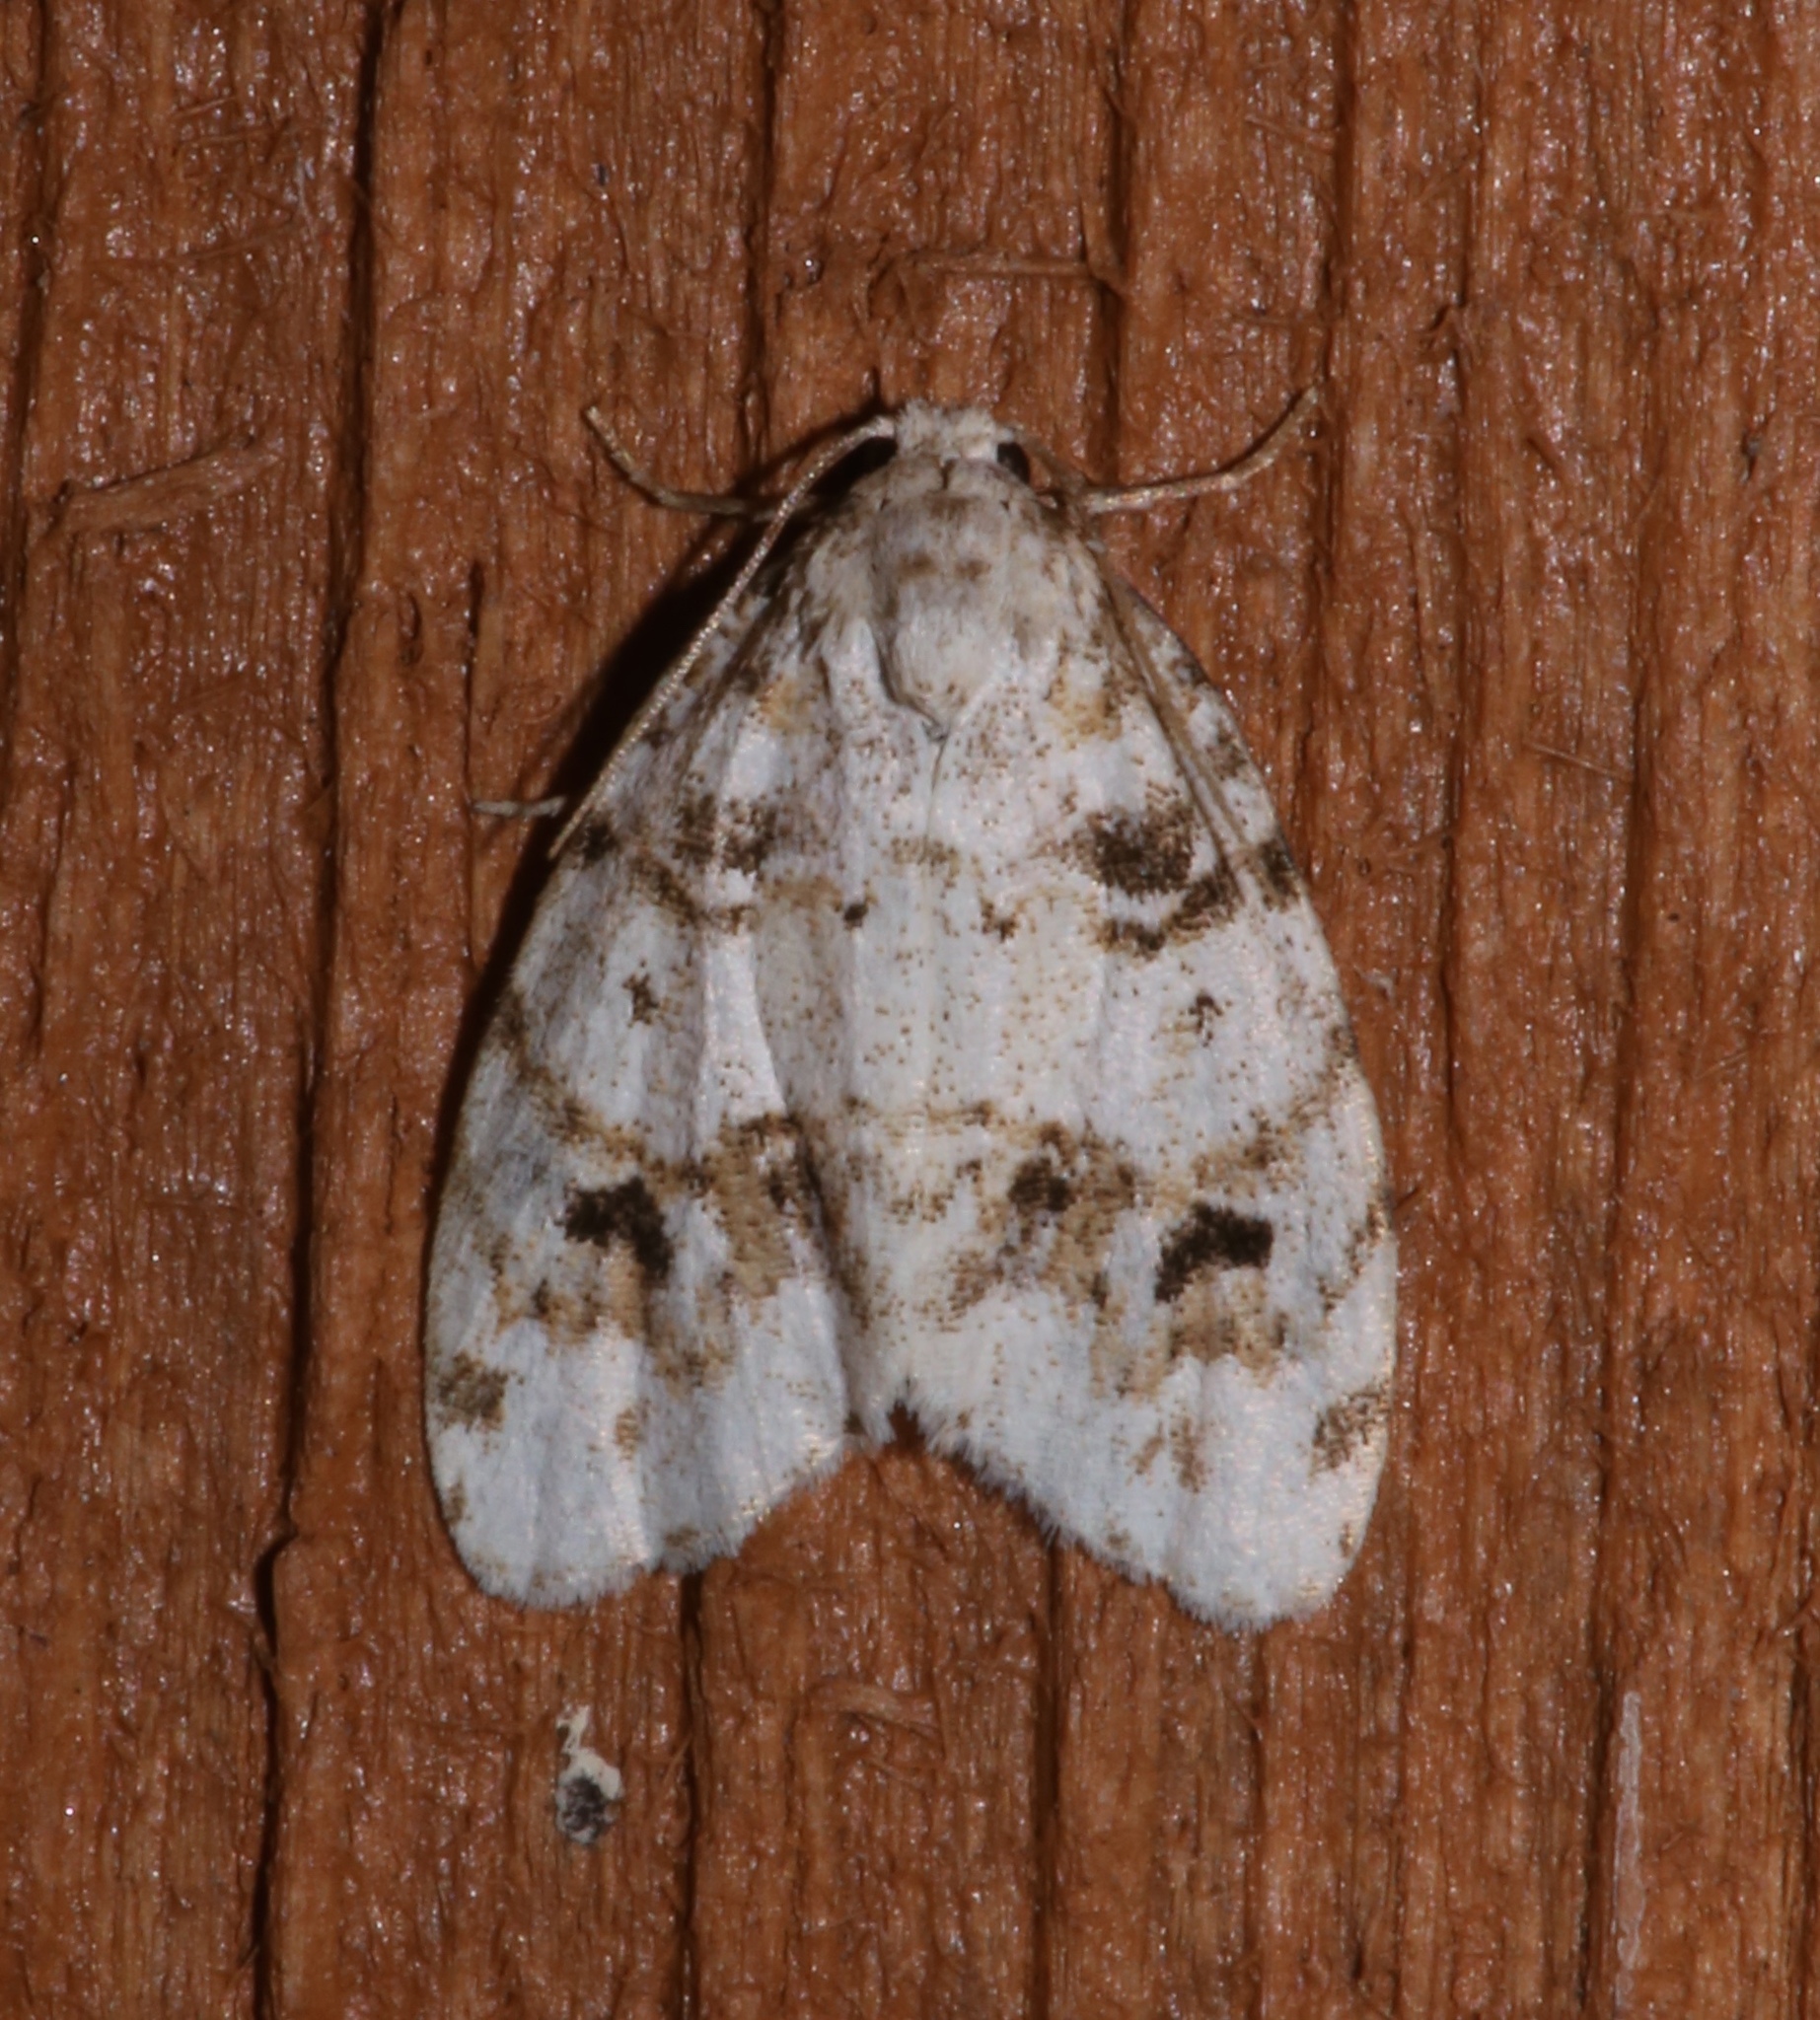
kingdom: Animalia
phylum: Arthropoda
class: Insecta
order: Lepidoptera
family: Erebidae
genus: Clemensia
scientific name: Clemensia ochreata
